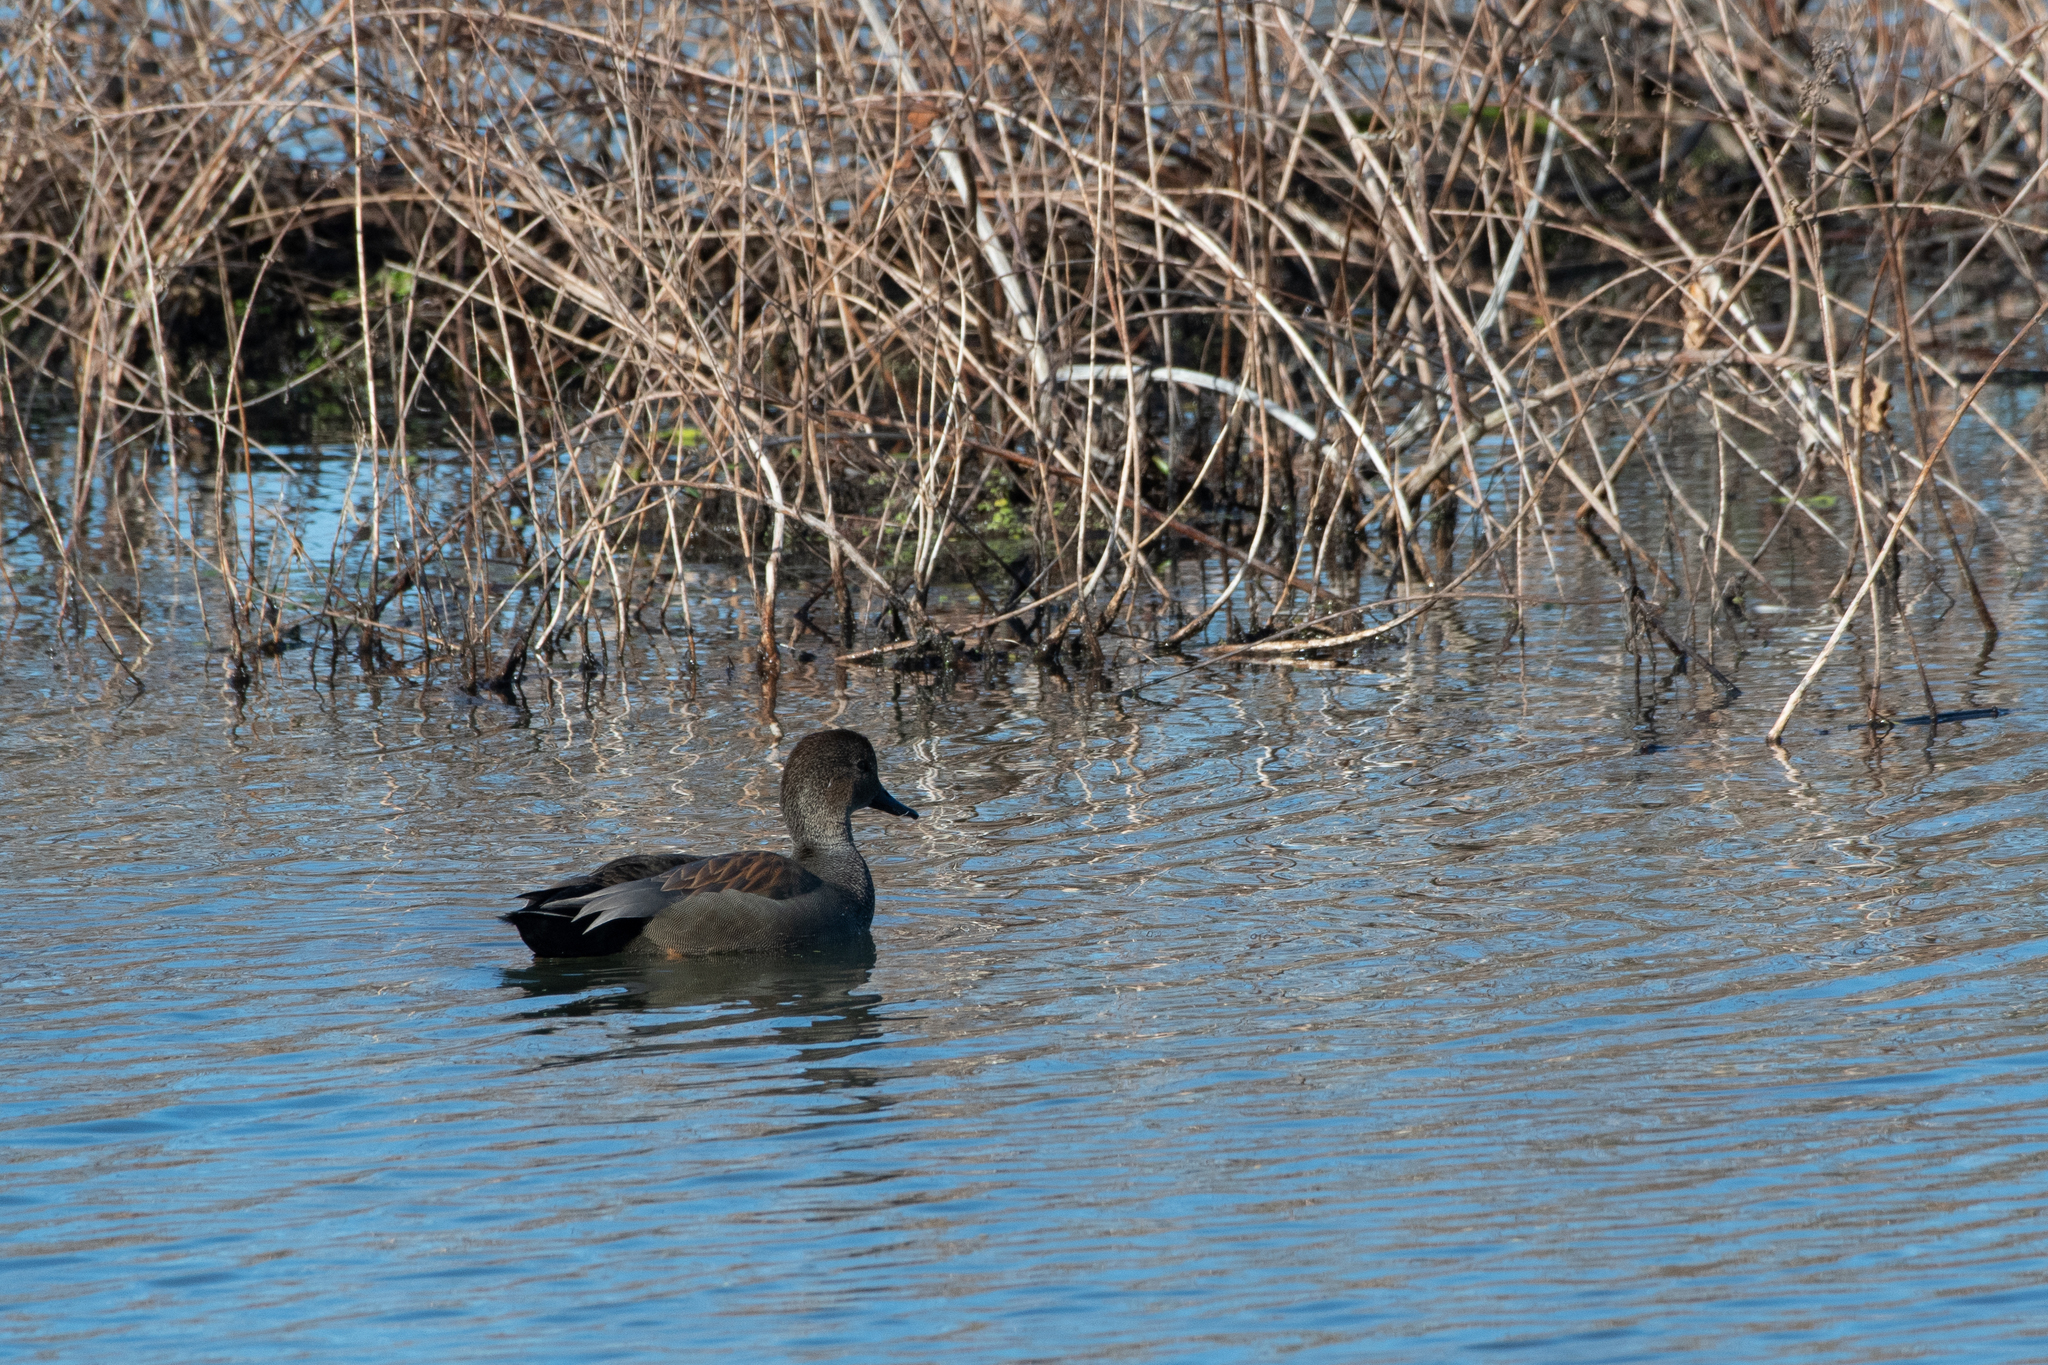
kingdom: Animalia
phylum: Chordata
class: Aves
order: Anseriformes
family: Anatidae
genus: Mareca
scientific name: Mareca strepera
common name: Gadwall
